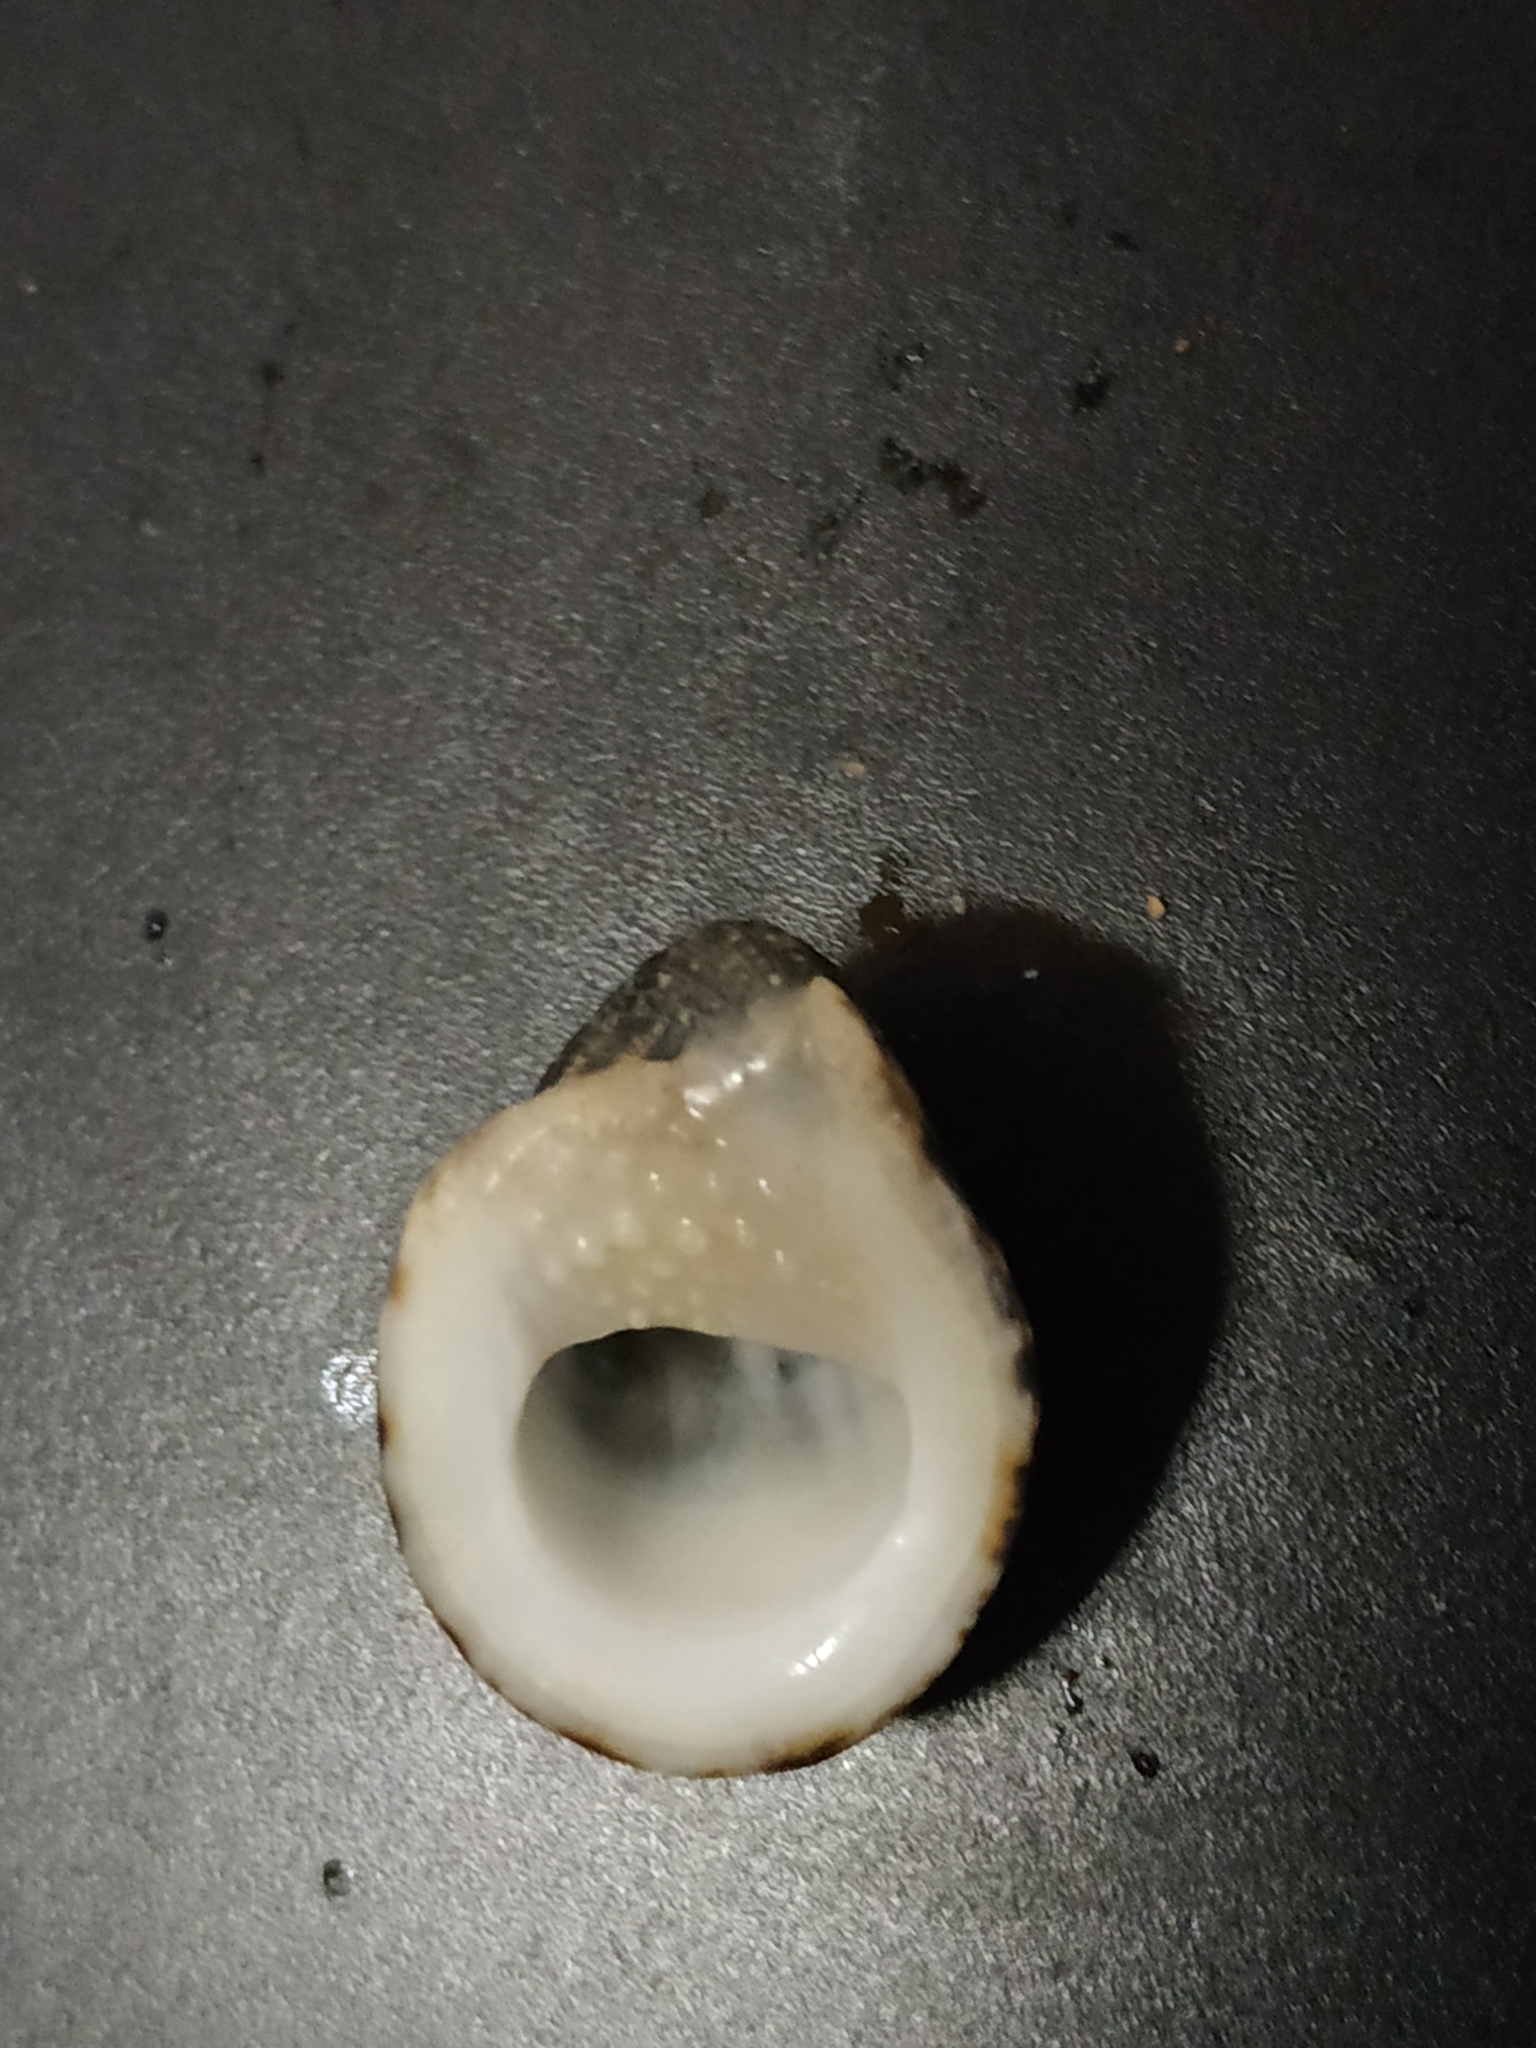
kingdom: Animalia
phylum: Mollusca
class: Gastropoda
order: Cycloneritida
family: Neritidae
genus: Nerita
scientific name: Nerita albicilla
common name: Blotched nerite
